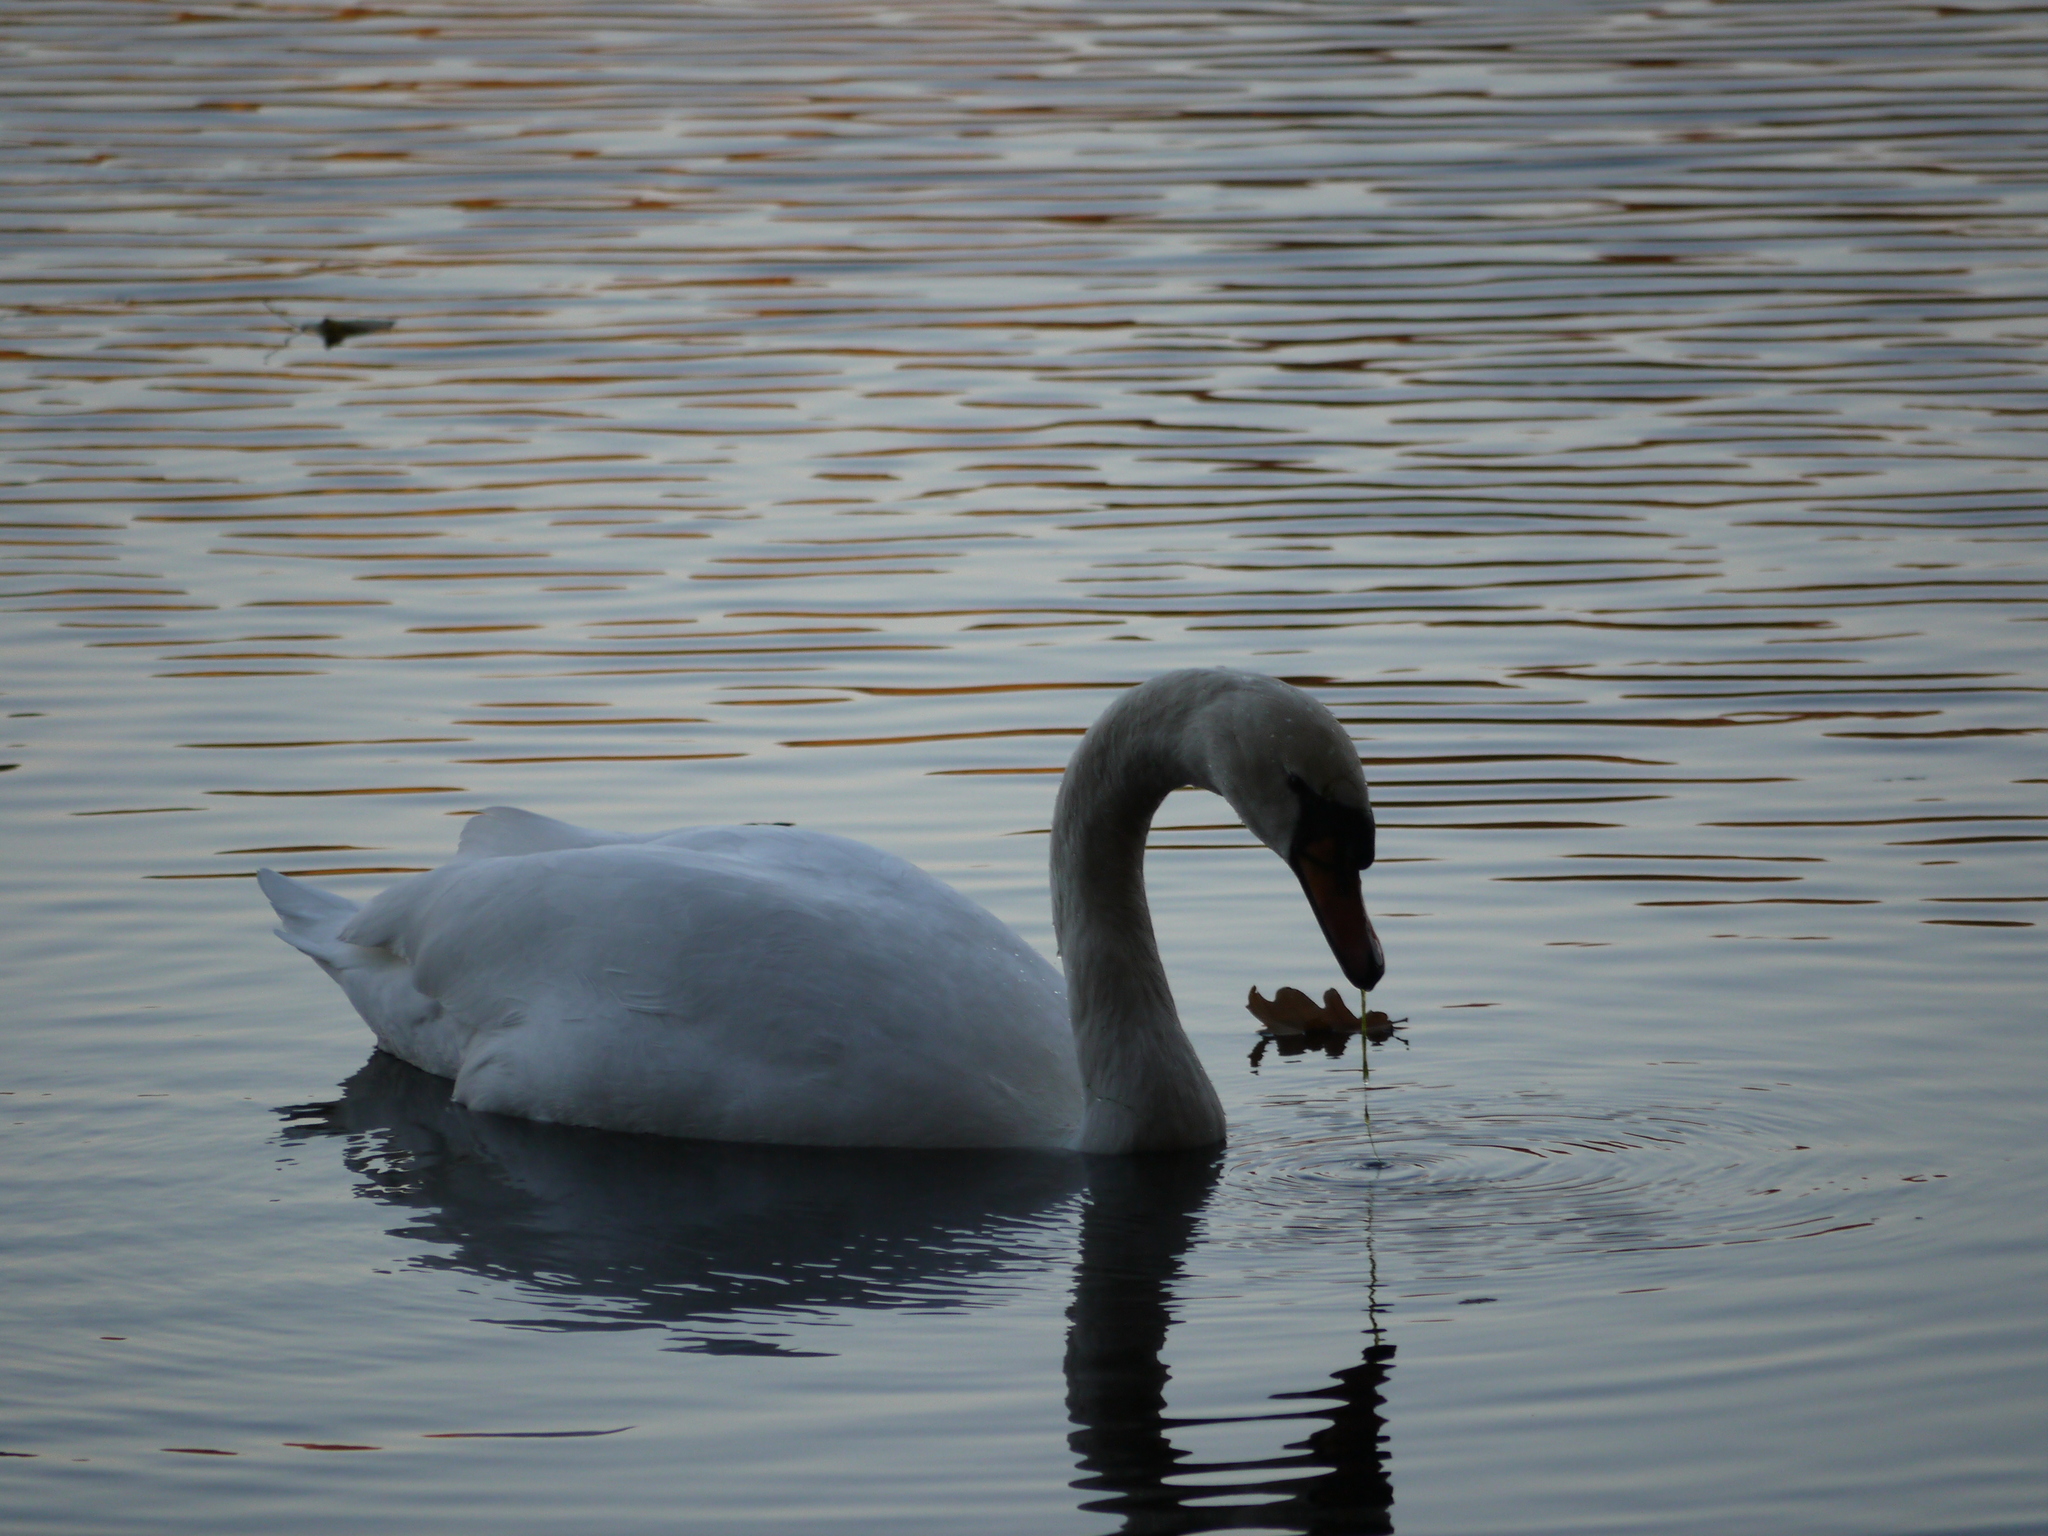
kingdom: Animalia
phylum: Chordata
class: Aves
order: Anseriformes
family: Anatidae
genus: Cygnus
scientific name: Cygnus olor
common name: Mute swan
